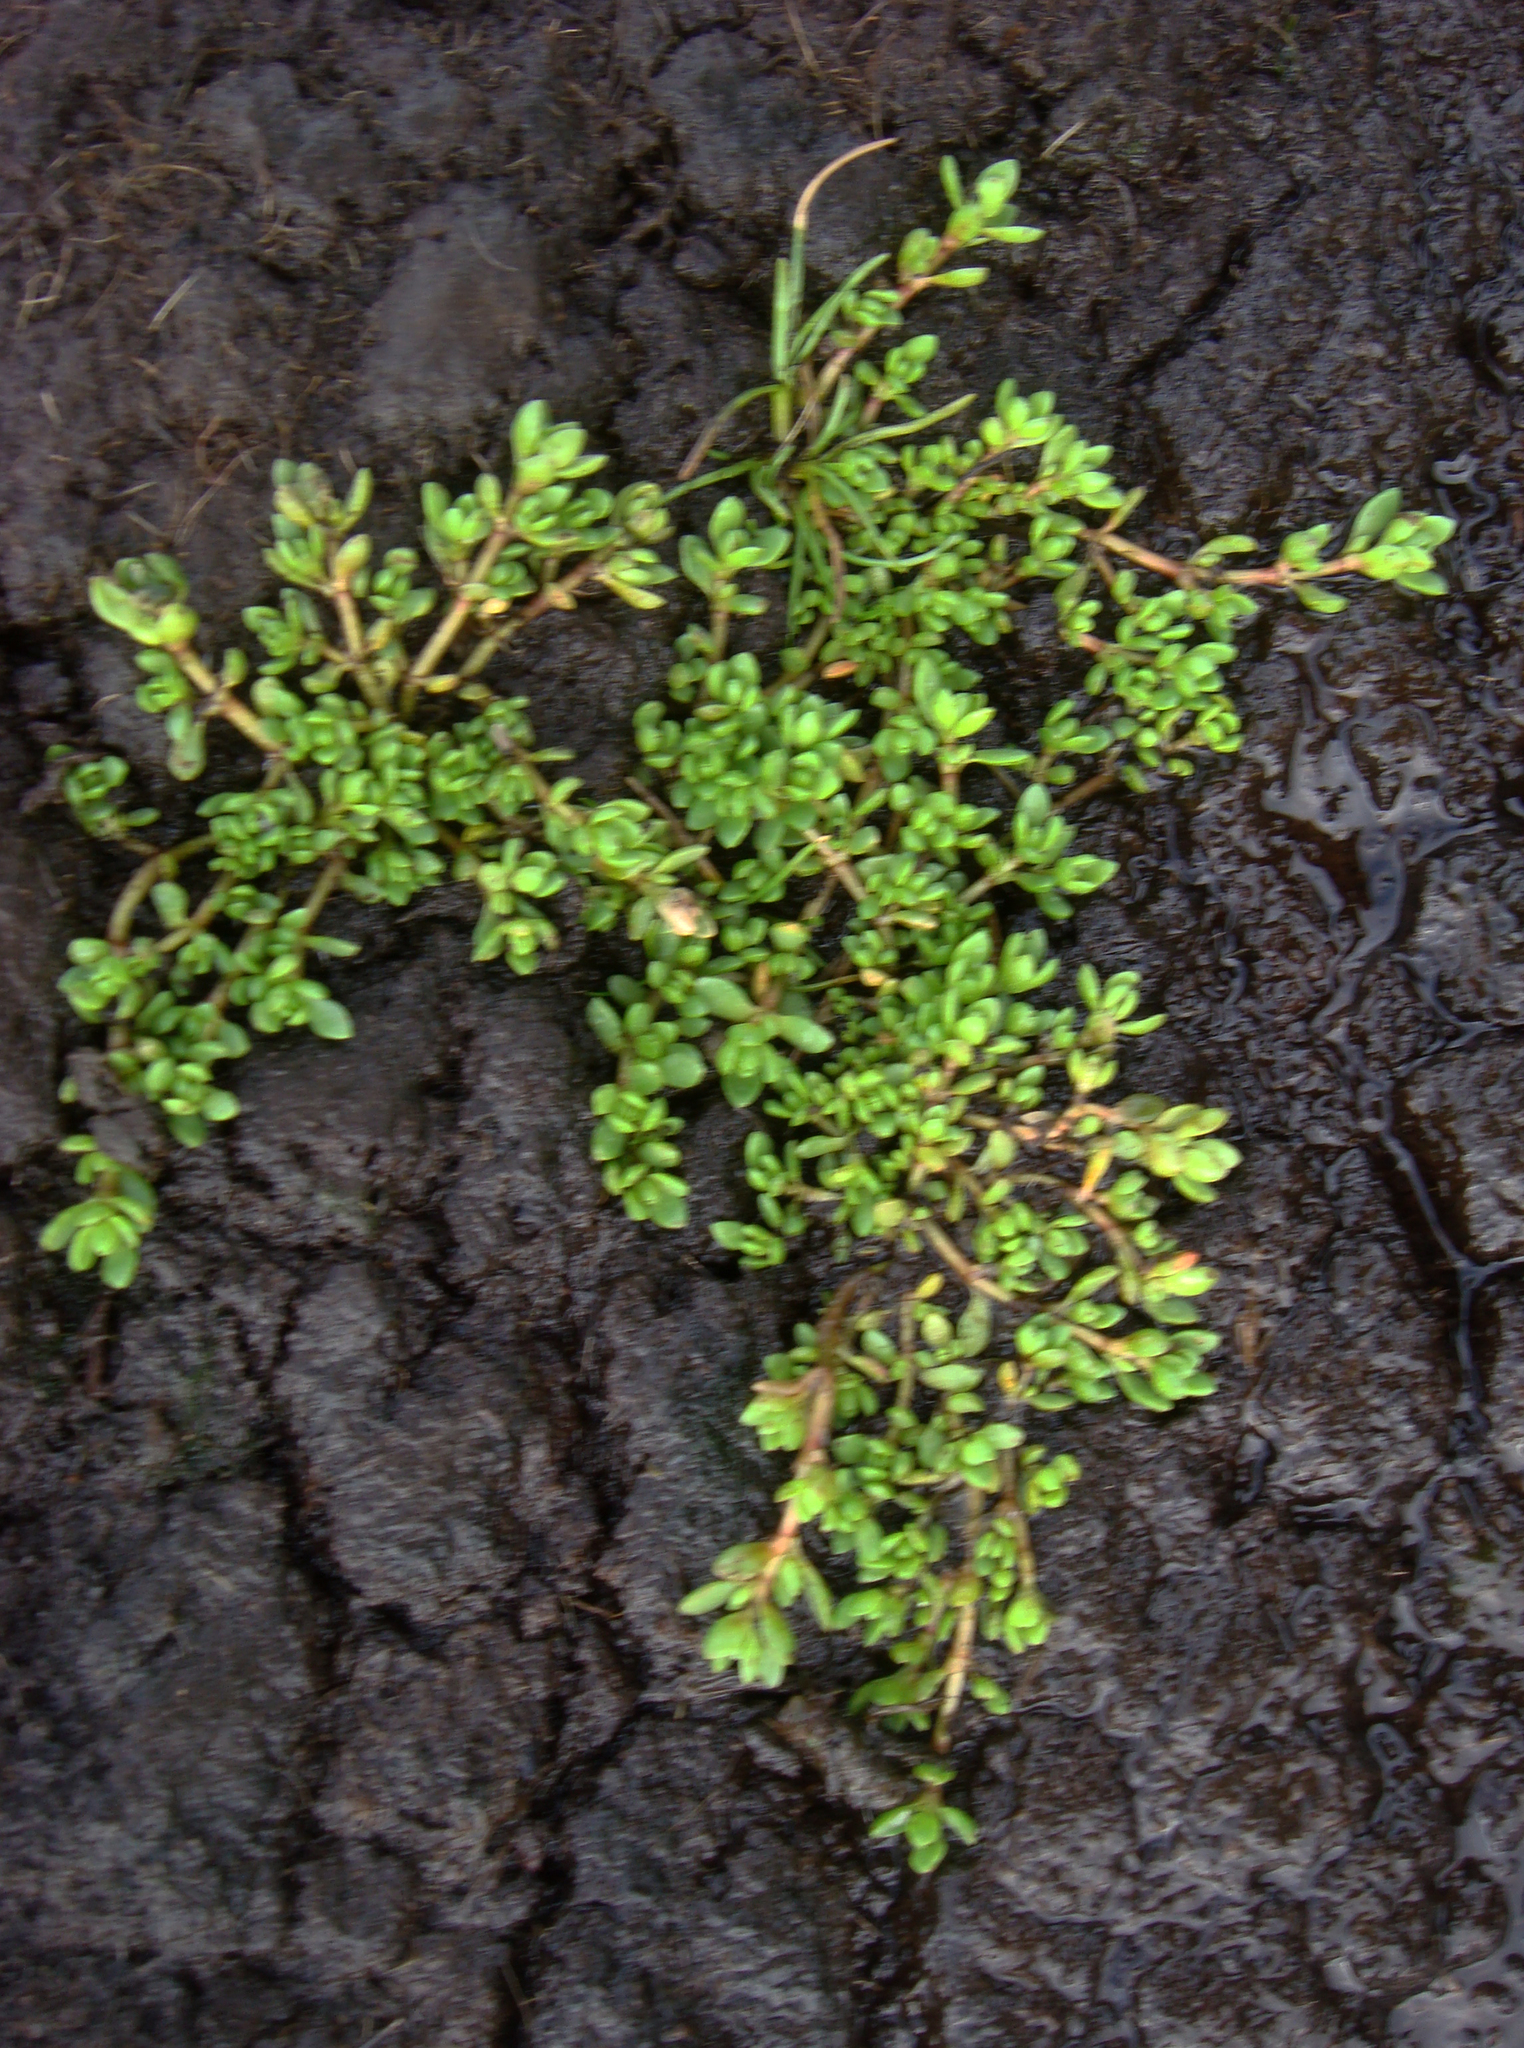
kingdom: Plantae
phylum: Tracheophyta
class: Magnoliopsida
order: Saxifragales
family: Crassulaceae
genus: Crassula
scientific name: Crassula kirkii
